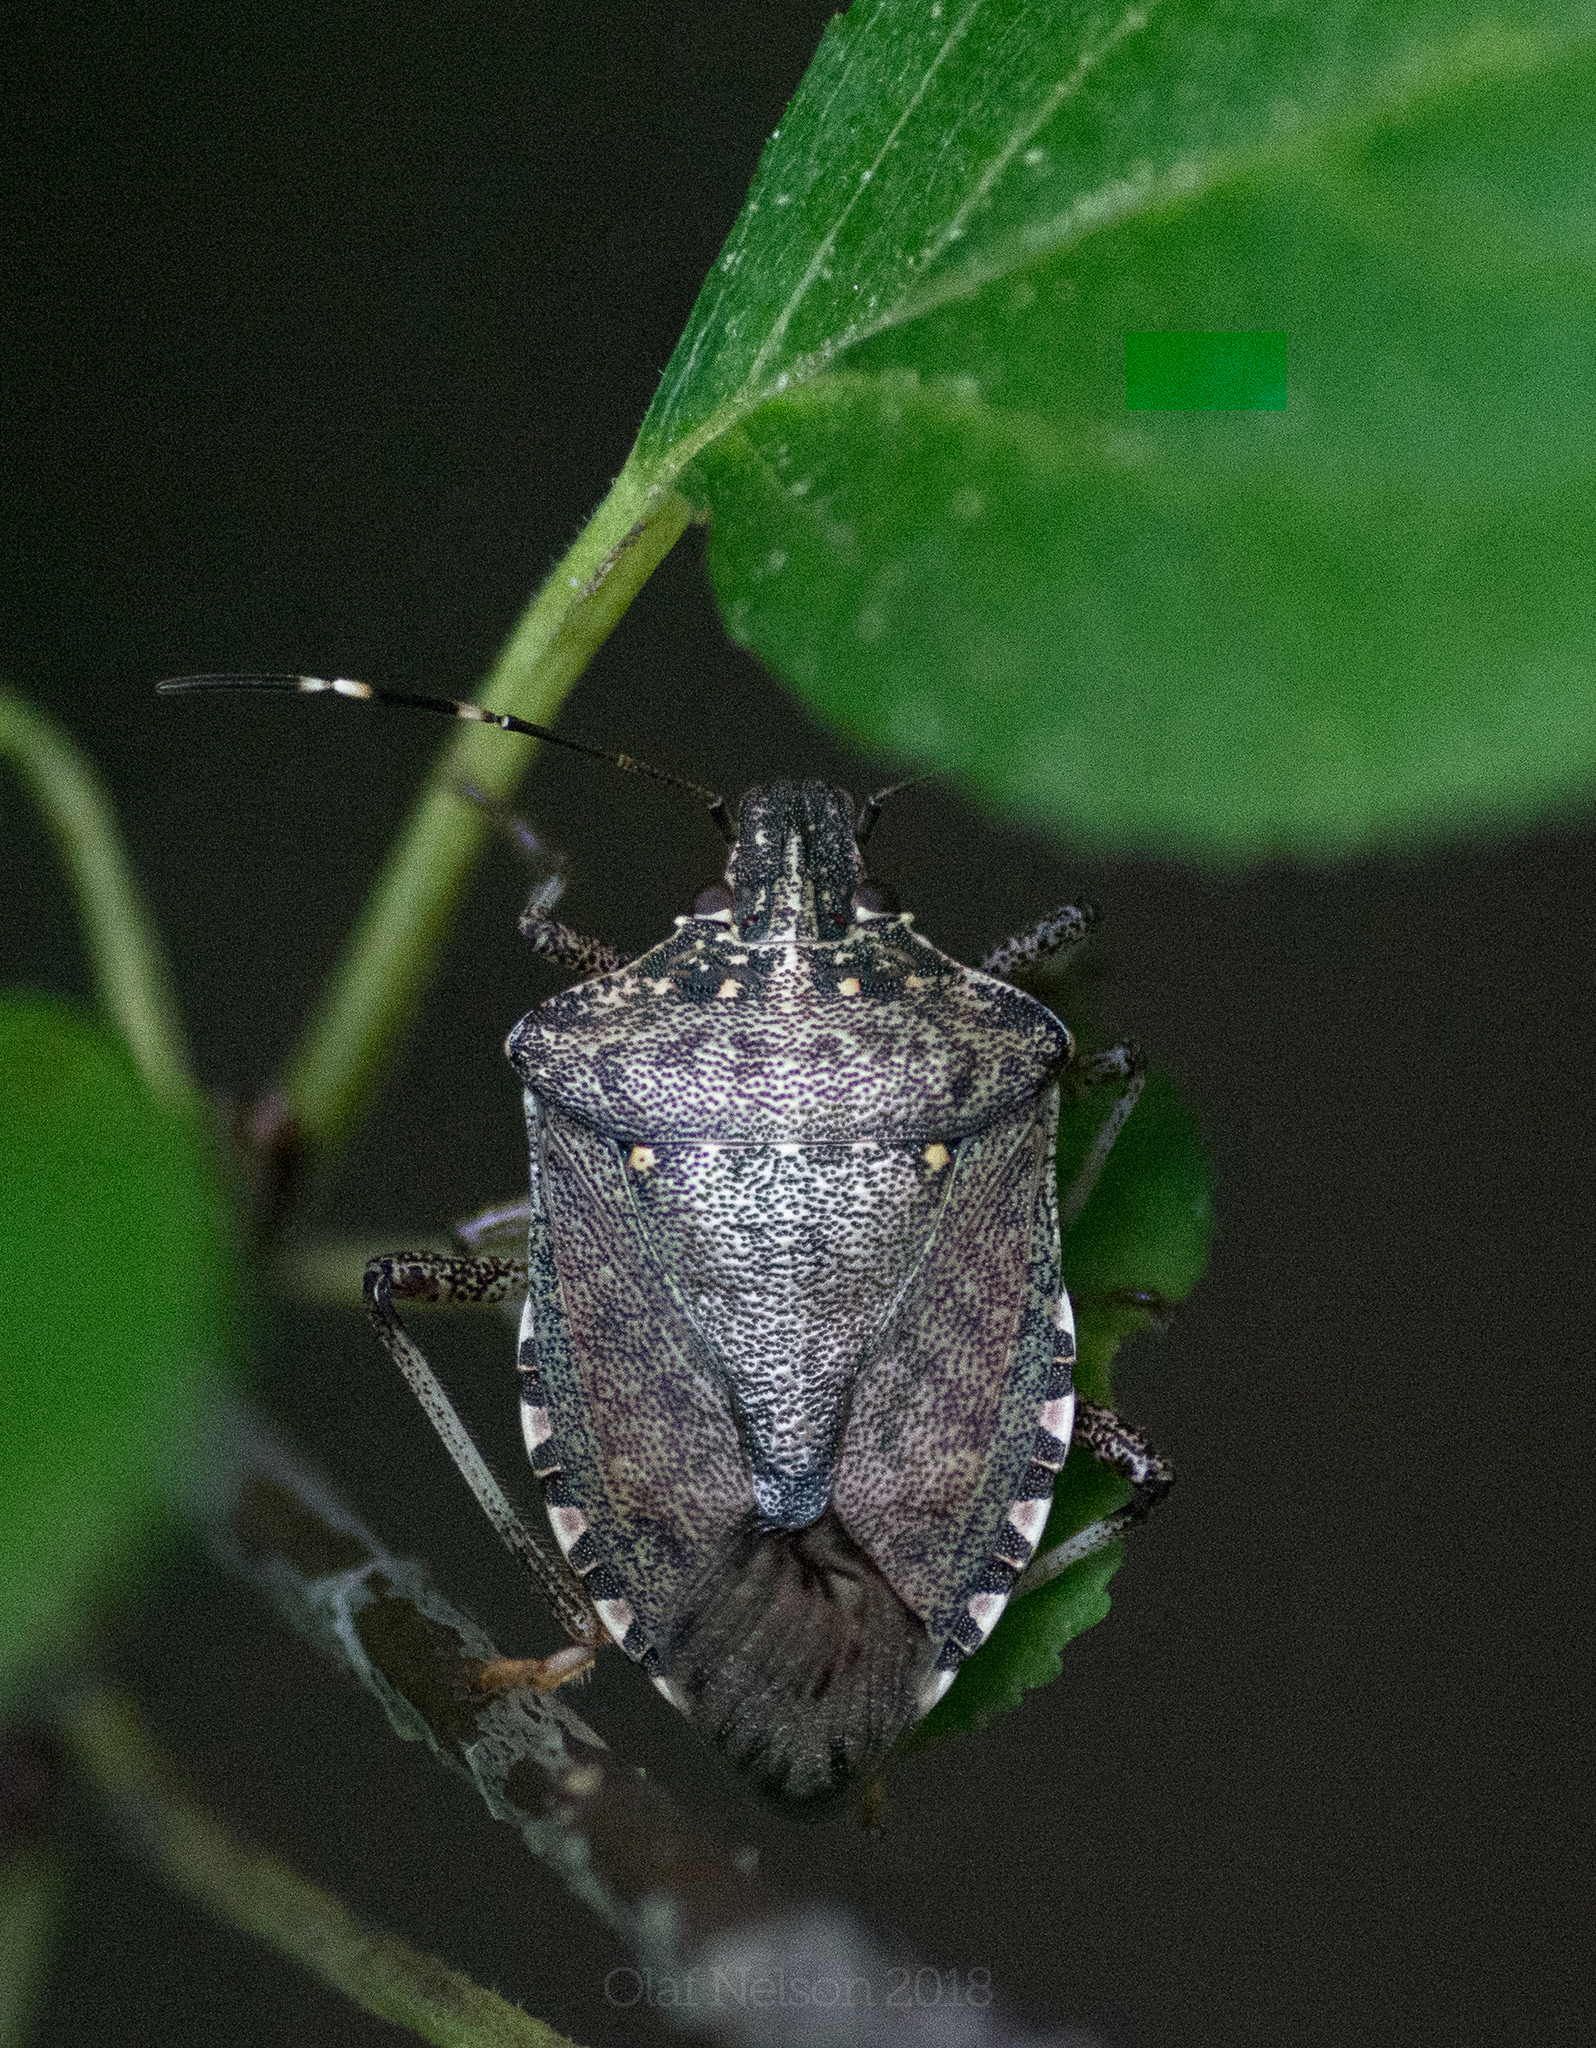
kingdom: Animalia
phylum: Arthropoda
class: Insecta
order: Hemiptera
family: Pentatomidae
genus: Halyomorpha
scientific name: Halyomorpha halys
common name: Brown marmorated stink bug
